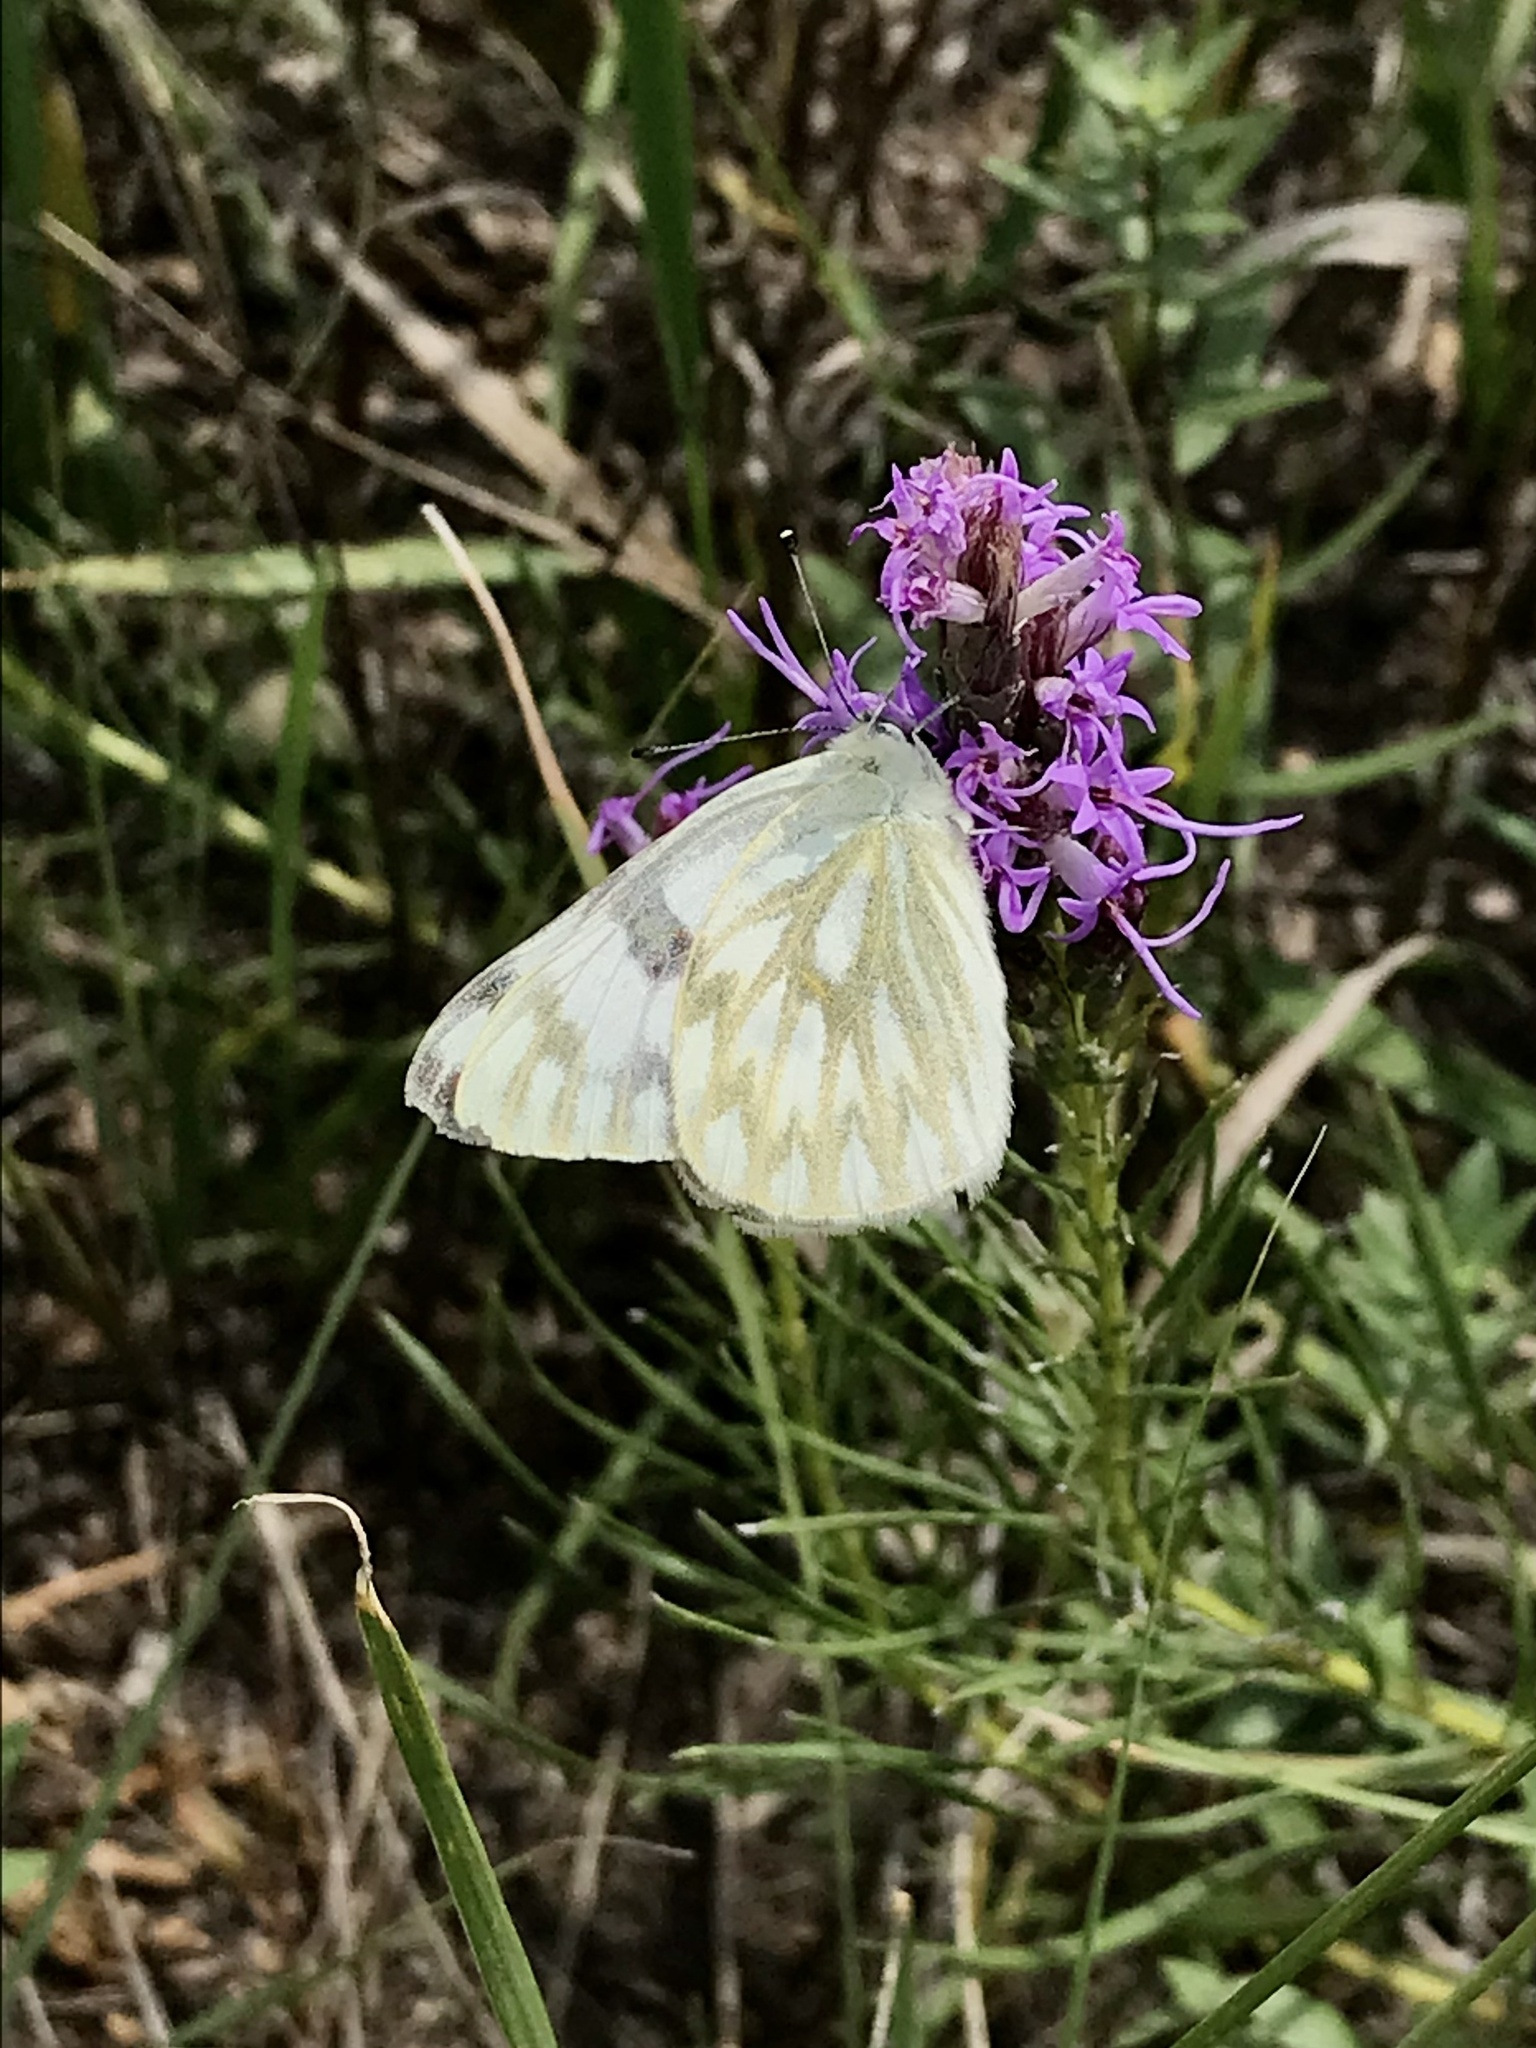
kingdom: Animalia
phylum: Arthropoda
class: Insecta
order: Lepidoptera
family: Pieridae
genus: Pontia
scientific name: Pontia occidentalis
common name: Western white
